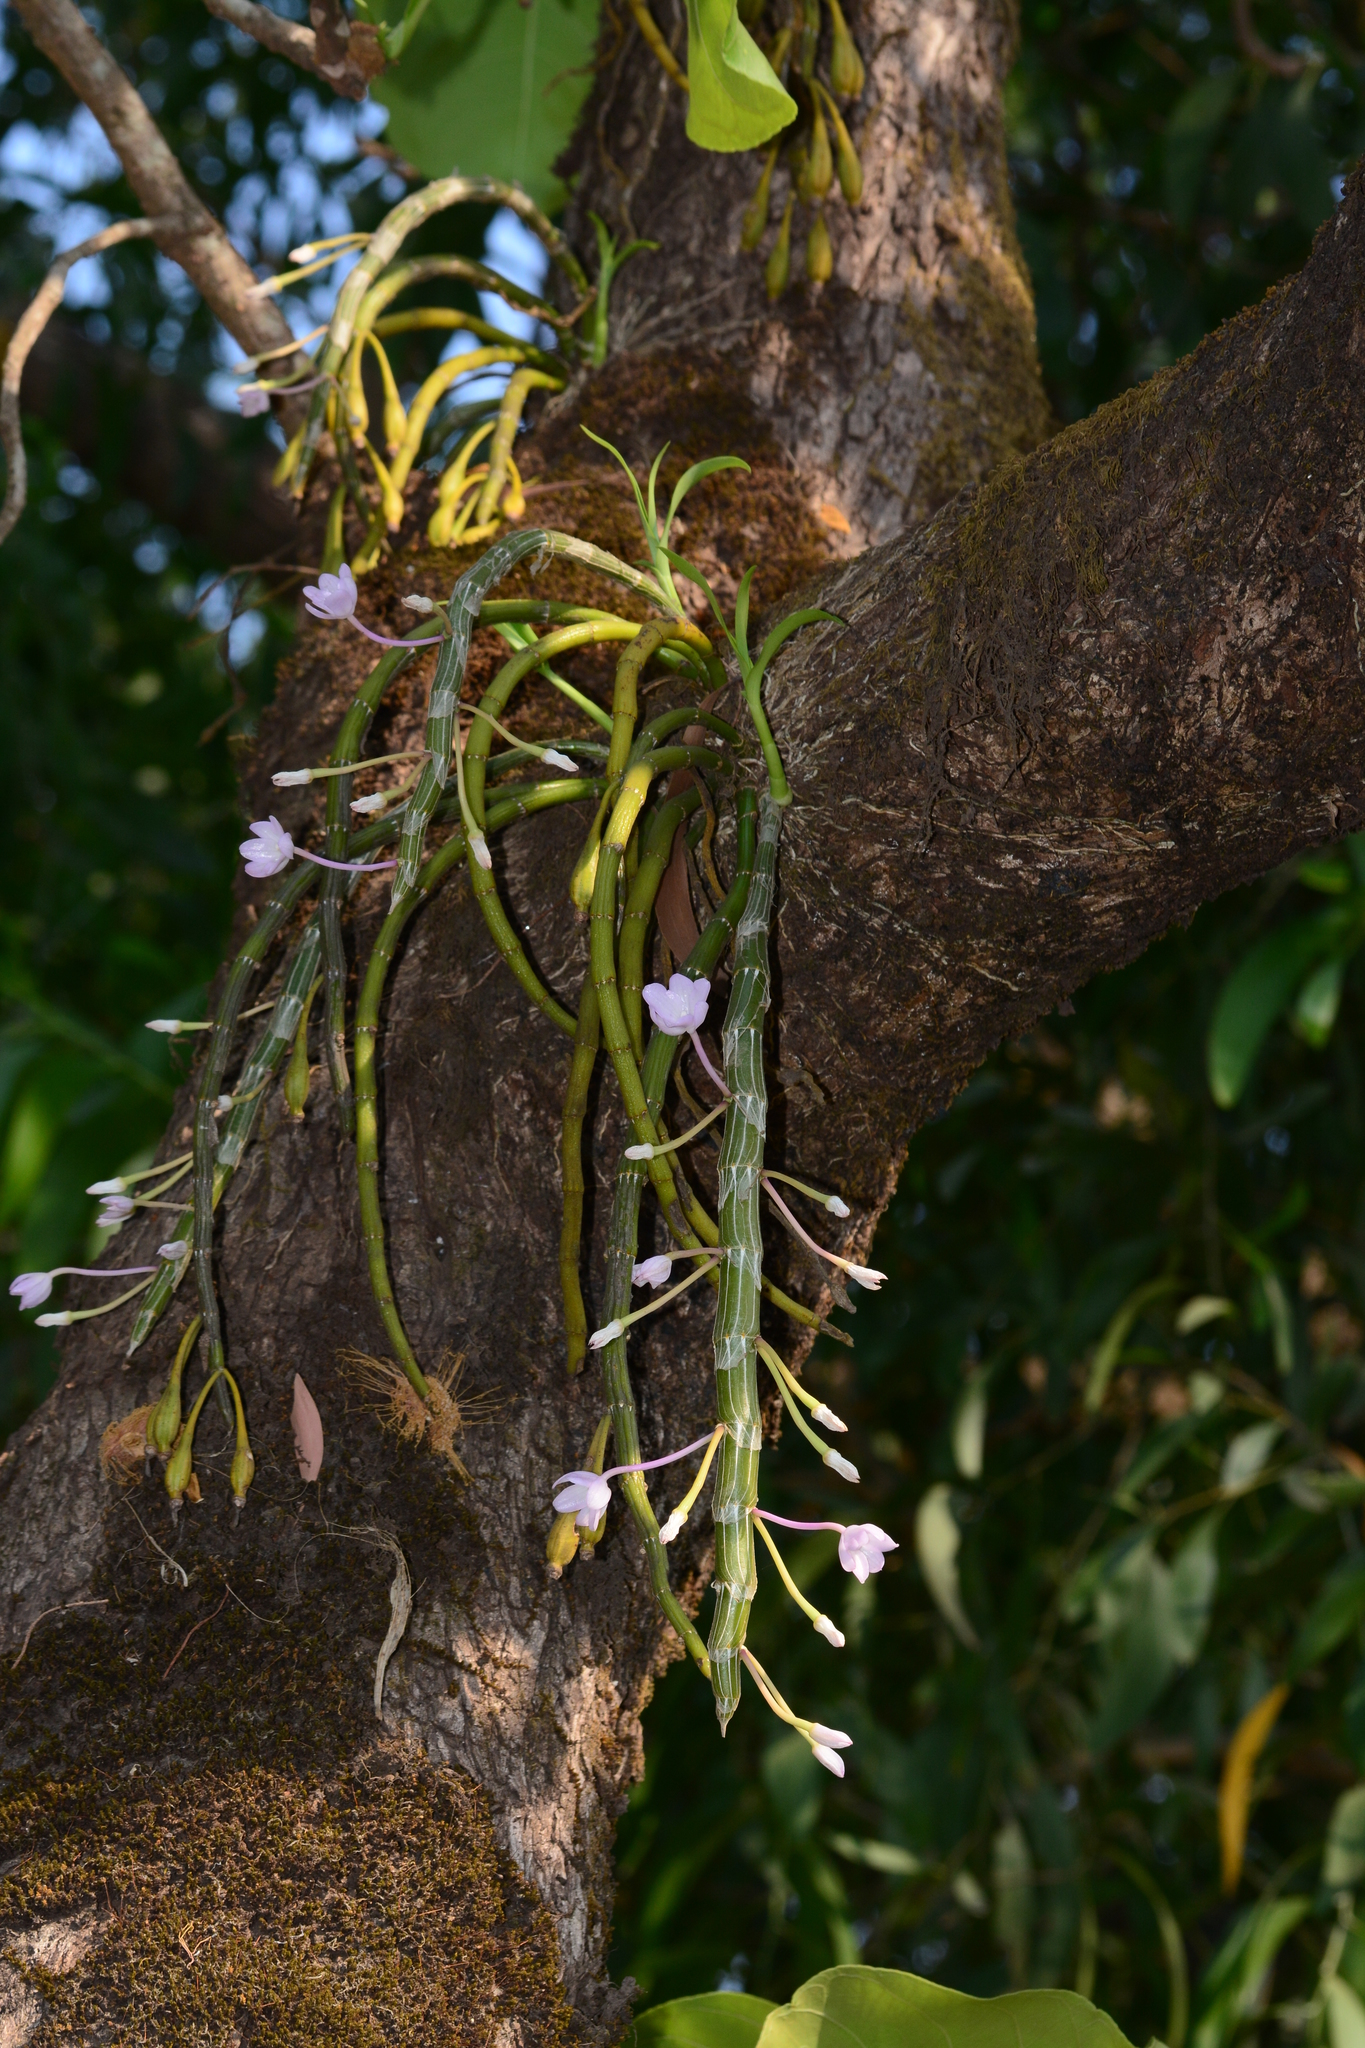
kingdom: Plantae
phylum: Tracheophyta
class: Liliopsida
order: Asparagales
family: Orchidaceae
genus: Dendrobium
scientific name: Dendrobium crepidatum
